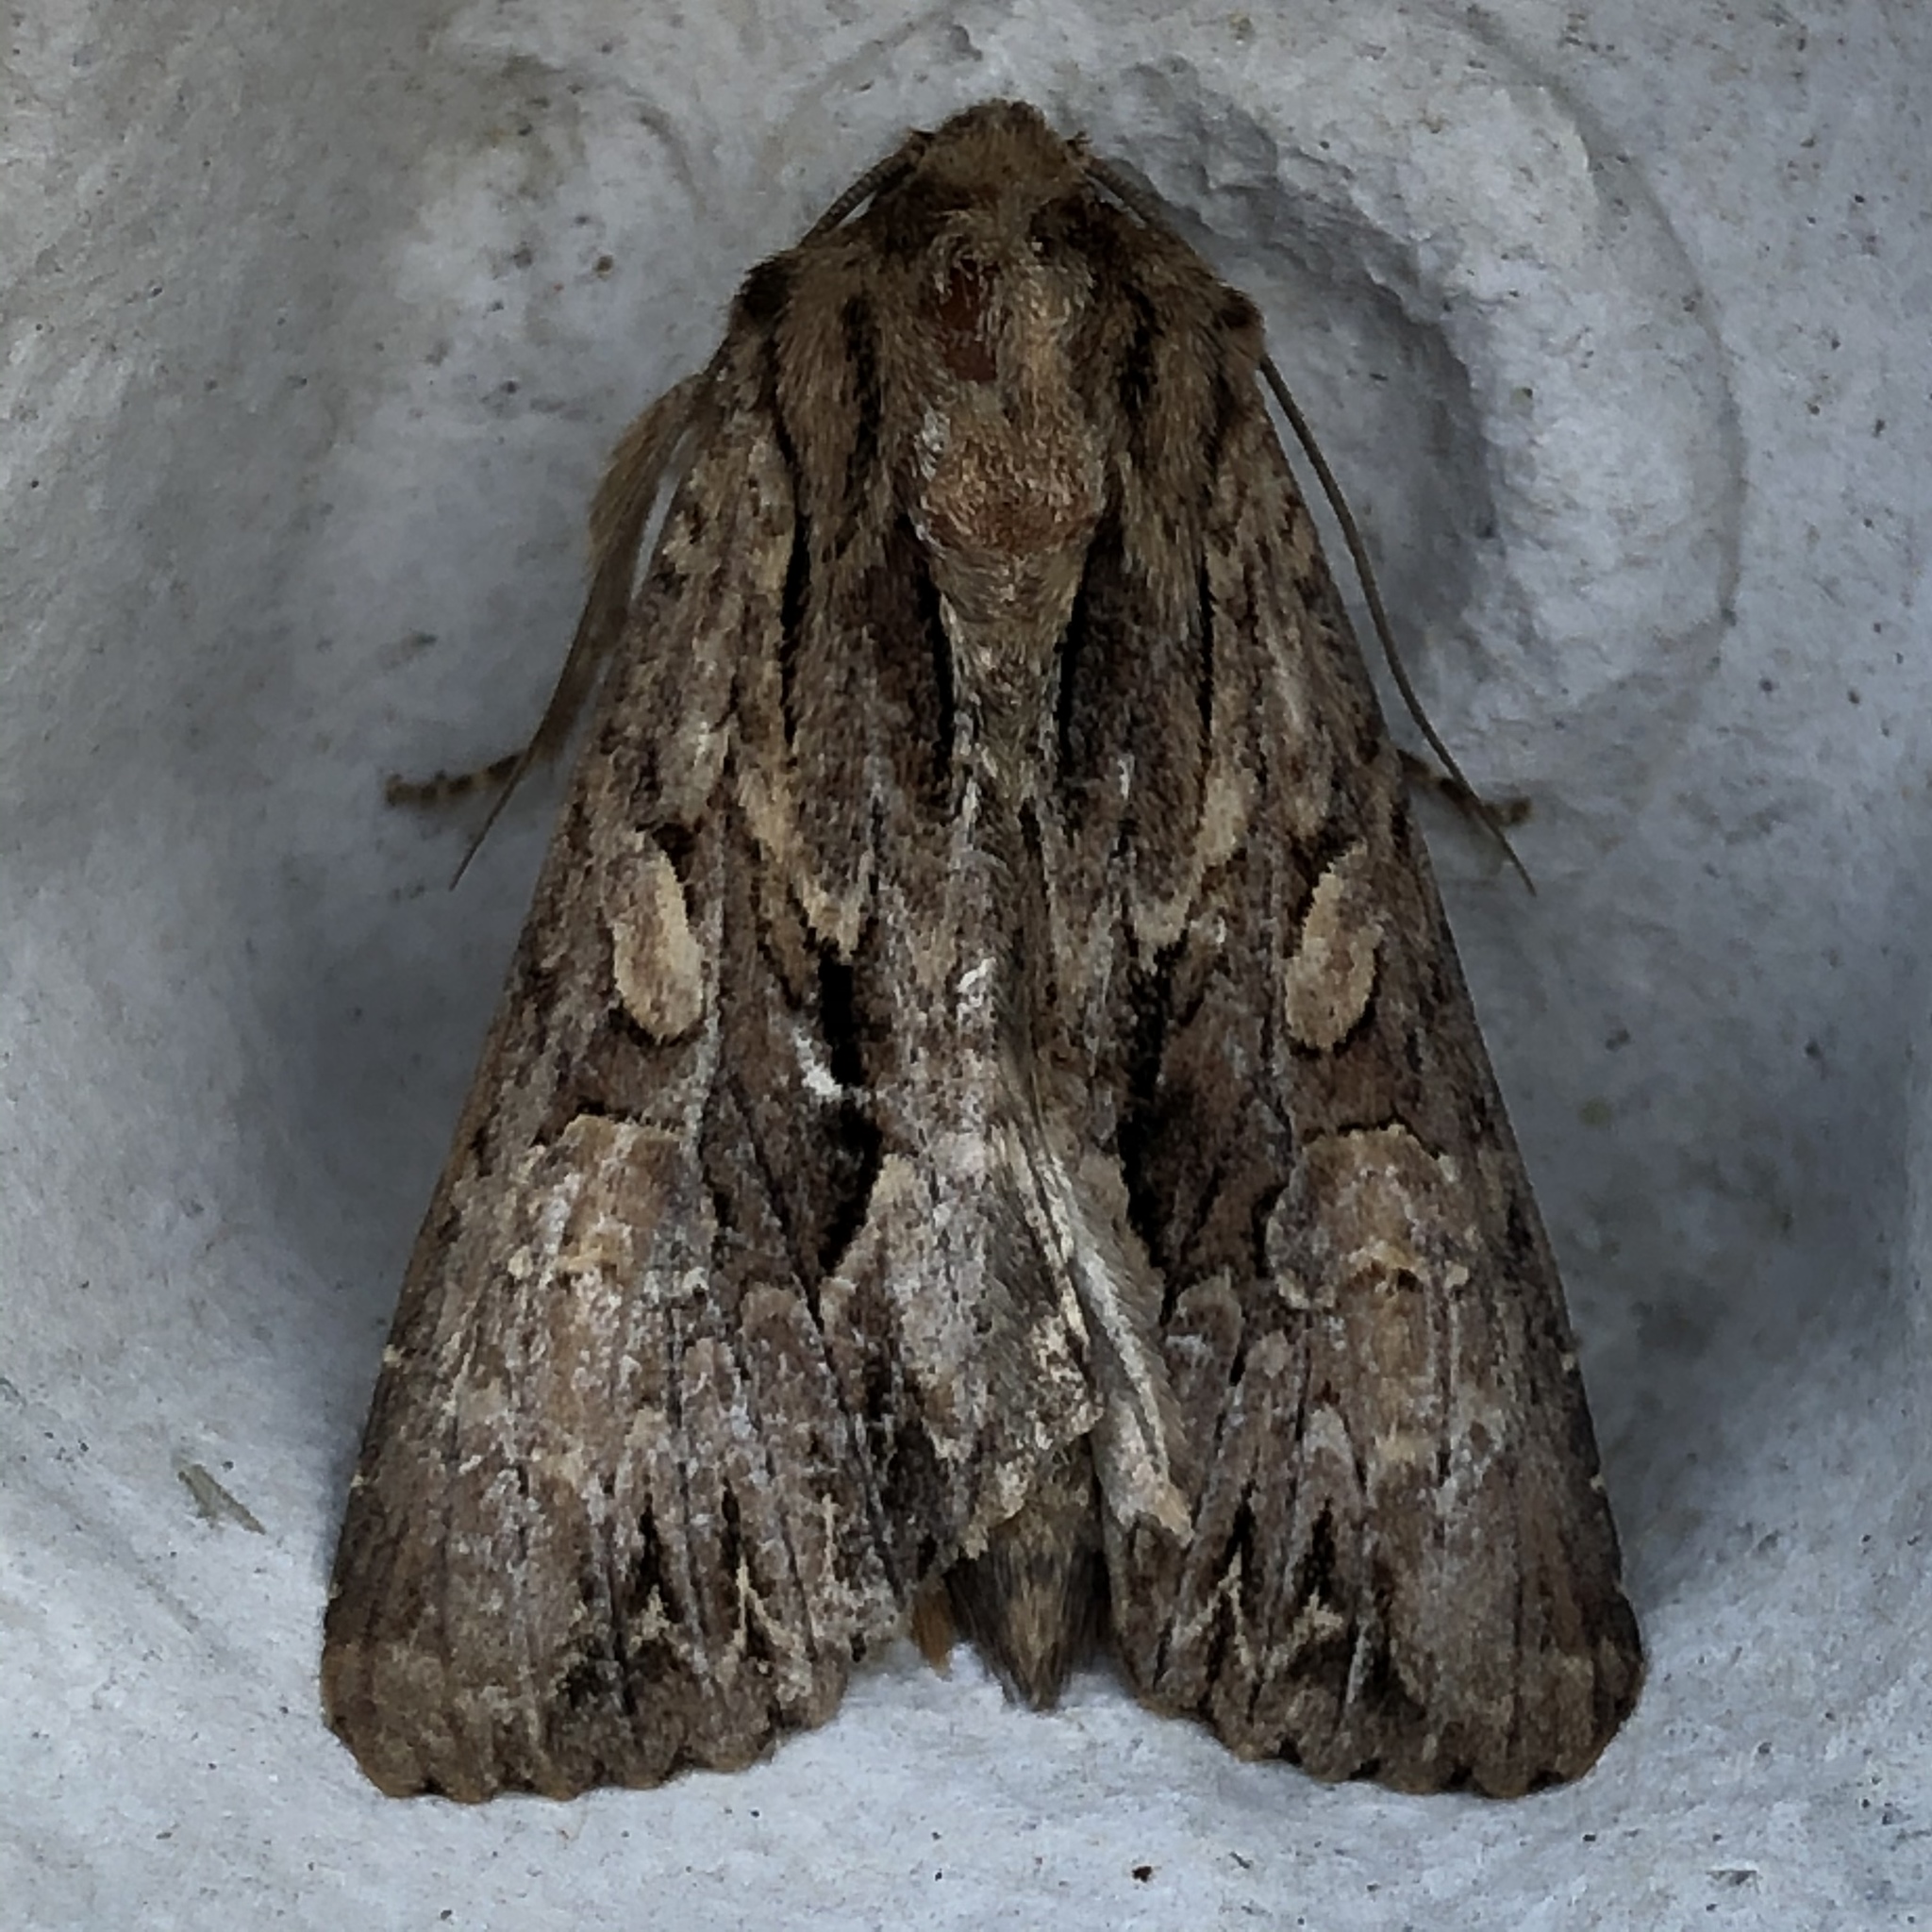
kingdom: Animalia
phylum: Arthropoda
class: Insecta
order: Lepidoptera
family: Noctuidae
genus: Apamea
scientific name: Apamea monoglypha
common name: Dark arches
